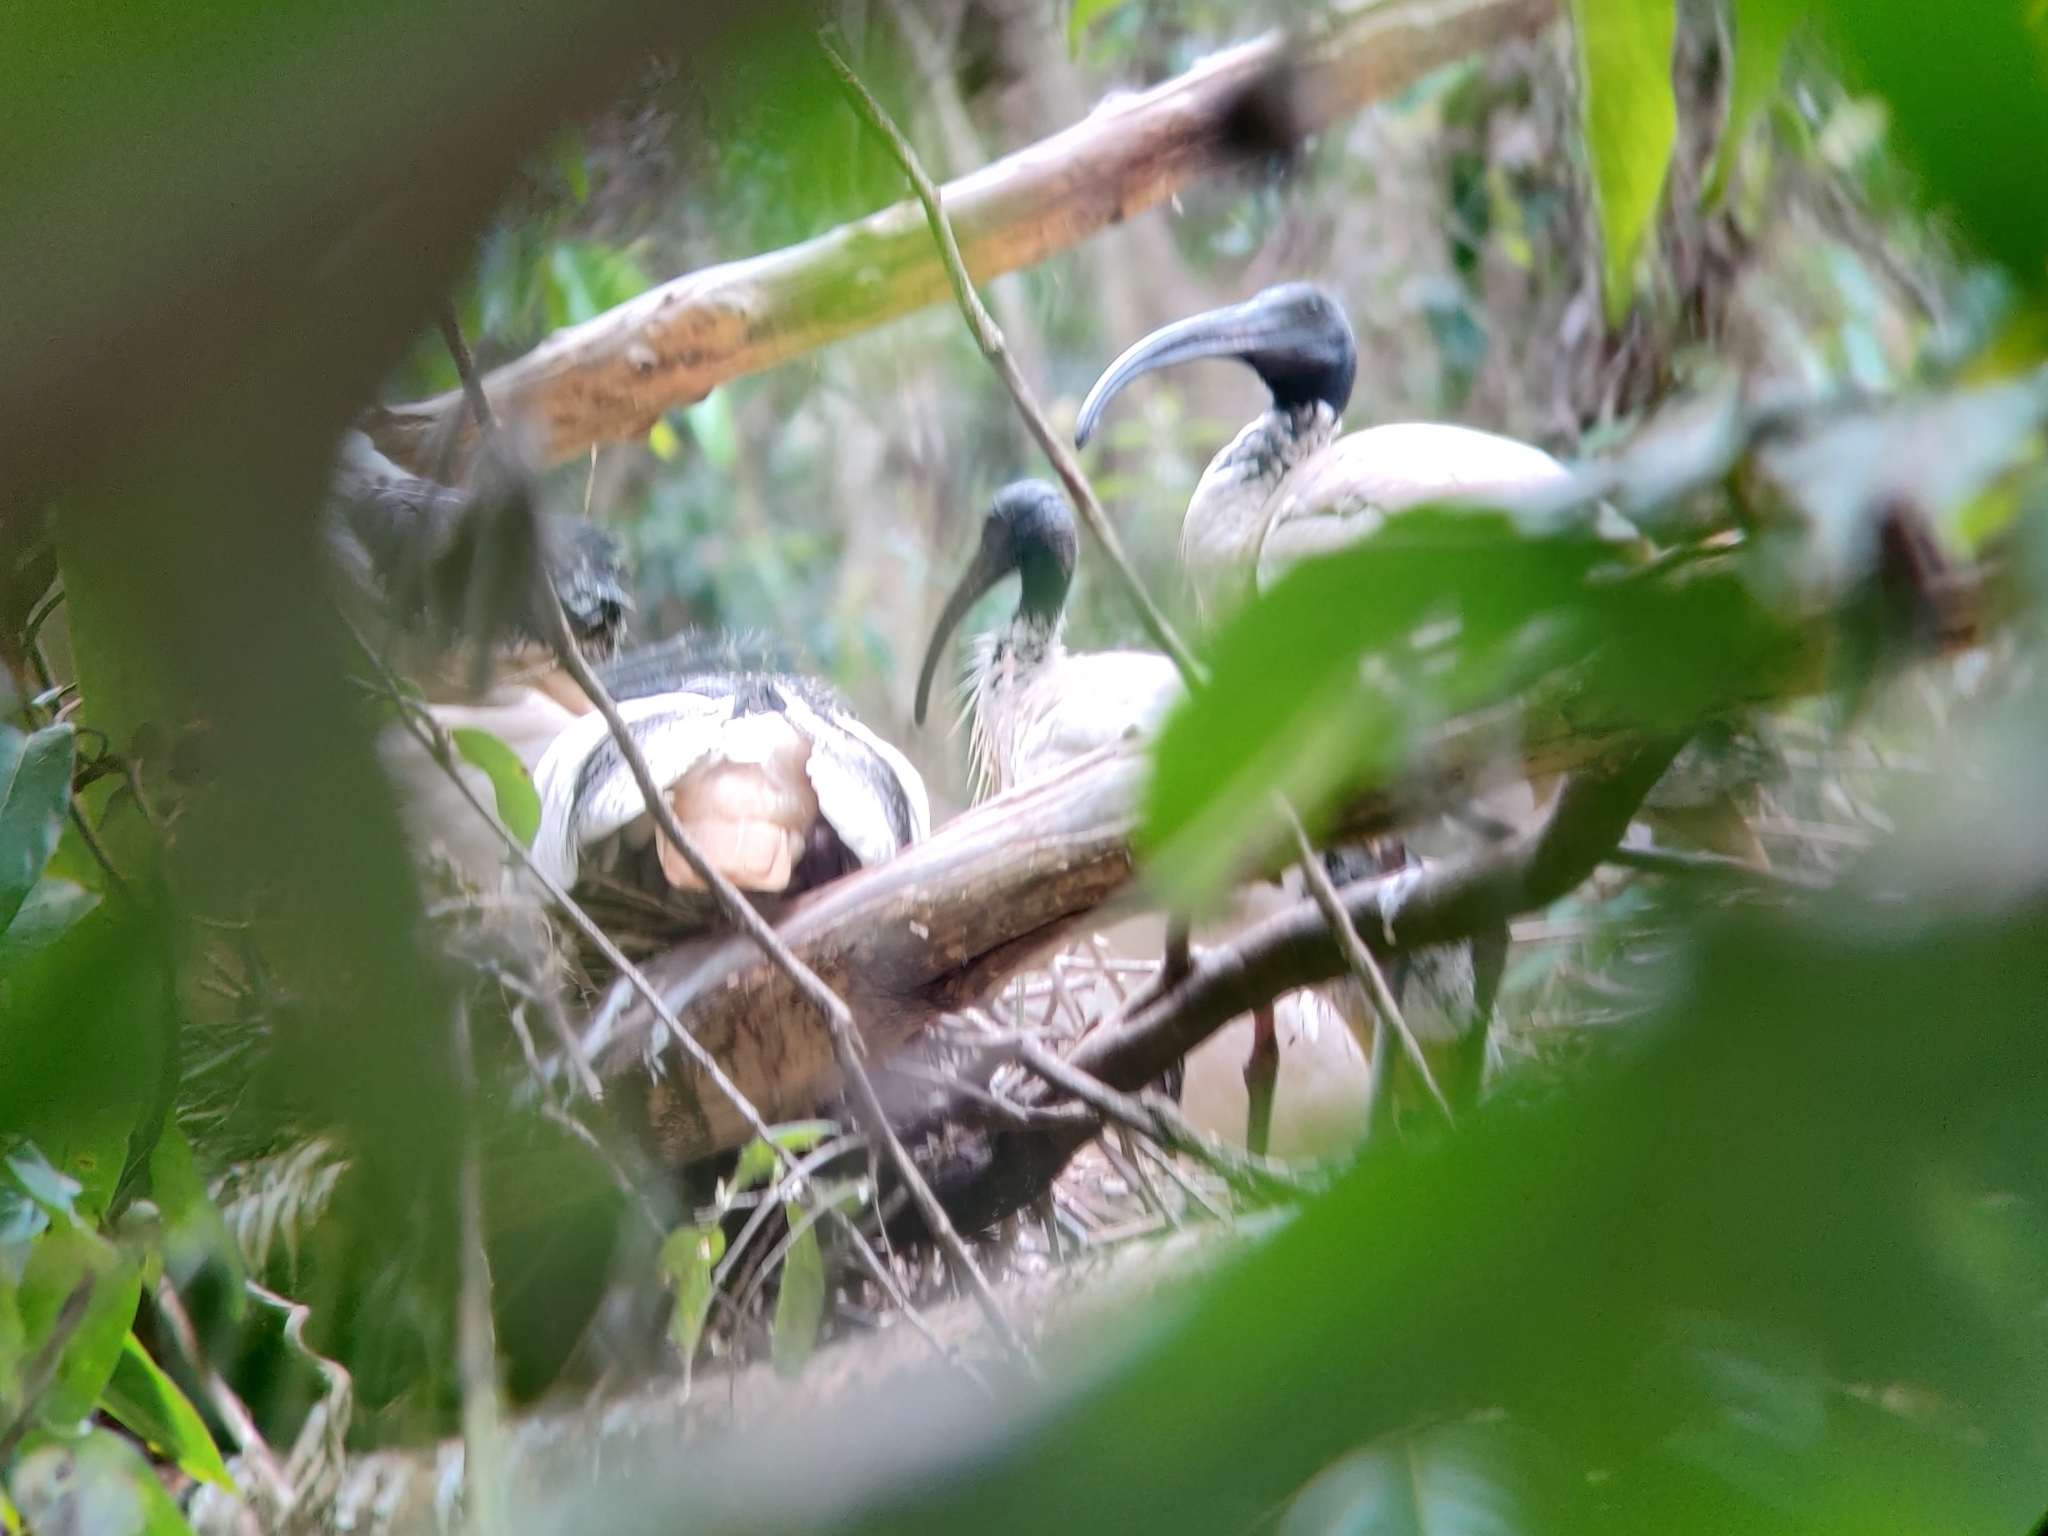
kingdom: Animalia
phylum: Chordata
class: Aves
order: Pelecaniformes
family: Threskiornithidae
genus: Threskiornis
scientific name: Threskiornis molucca
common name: Australian white ibis
